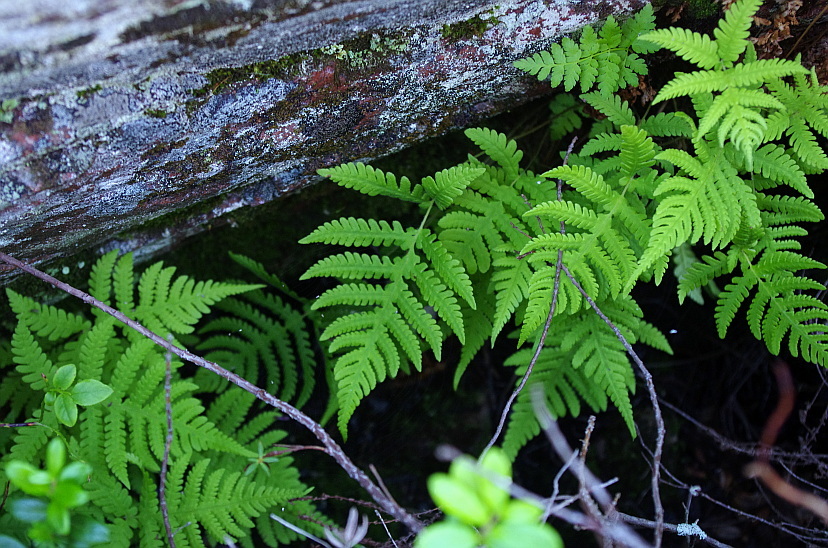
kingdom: Plantae
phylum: Tracheophyta
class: Polypodiopsida
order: Polypodiales
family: Thelypteridaceae
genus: Phegopteris
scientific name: Phegopteris connectilis
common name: Beech fern
